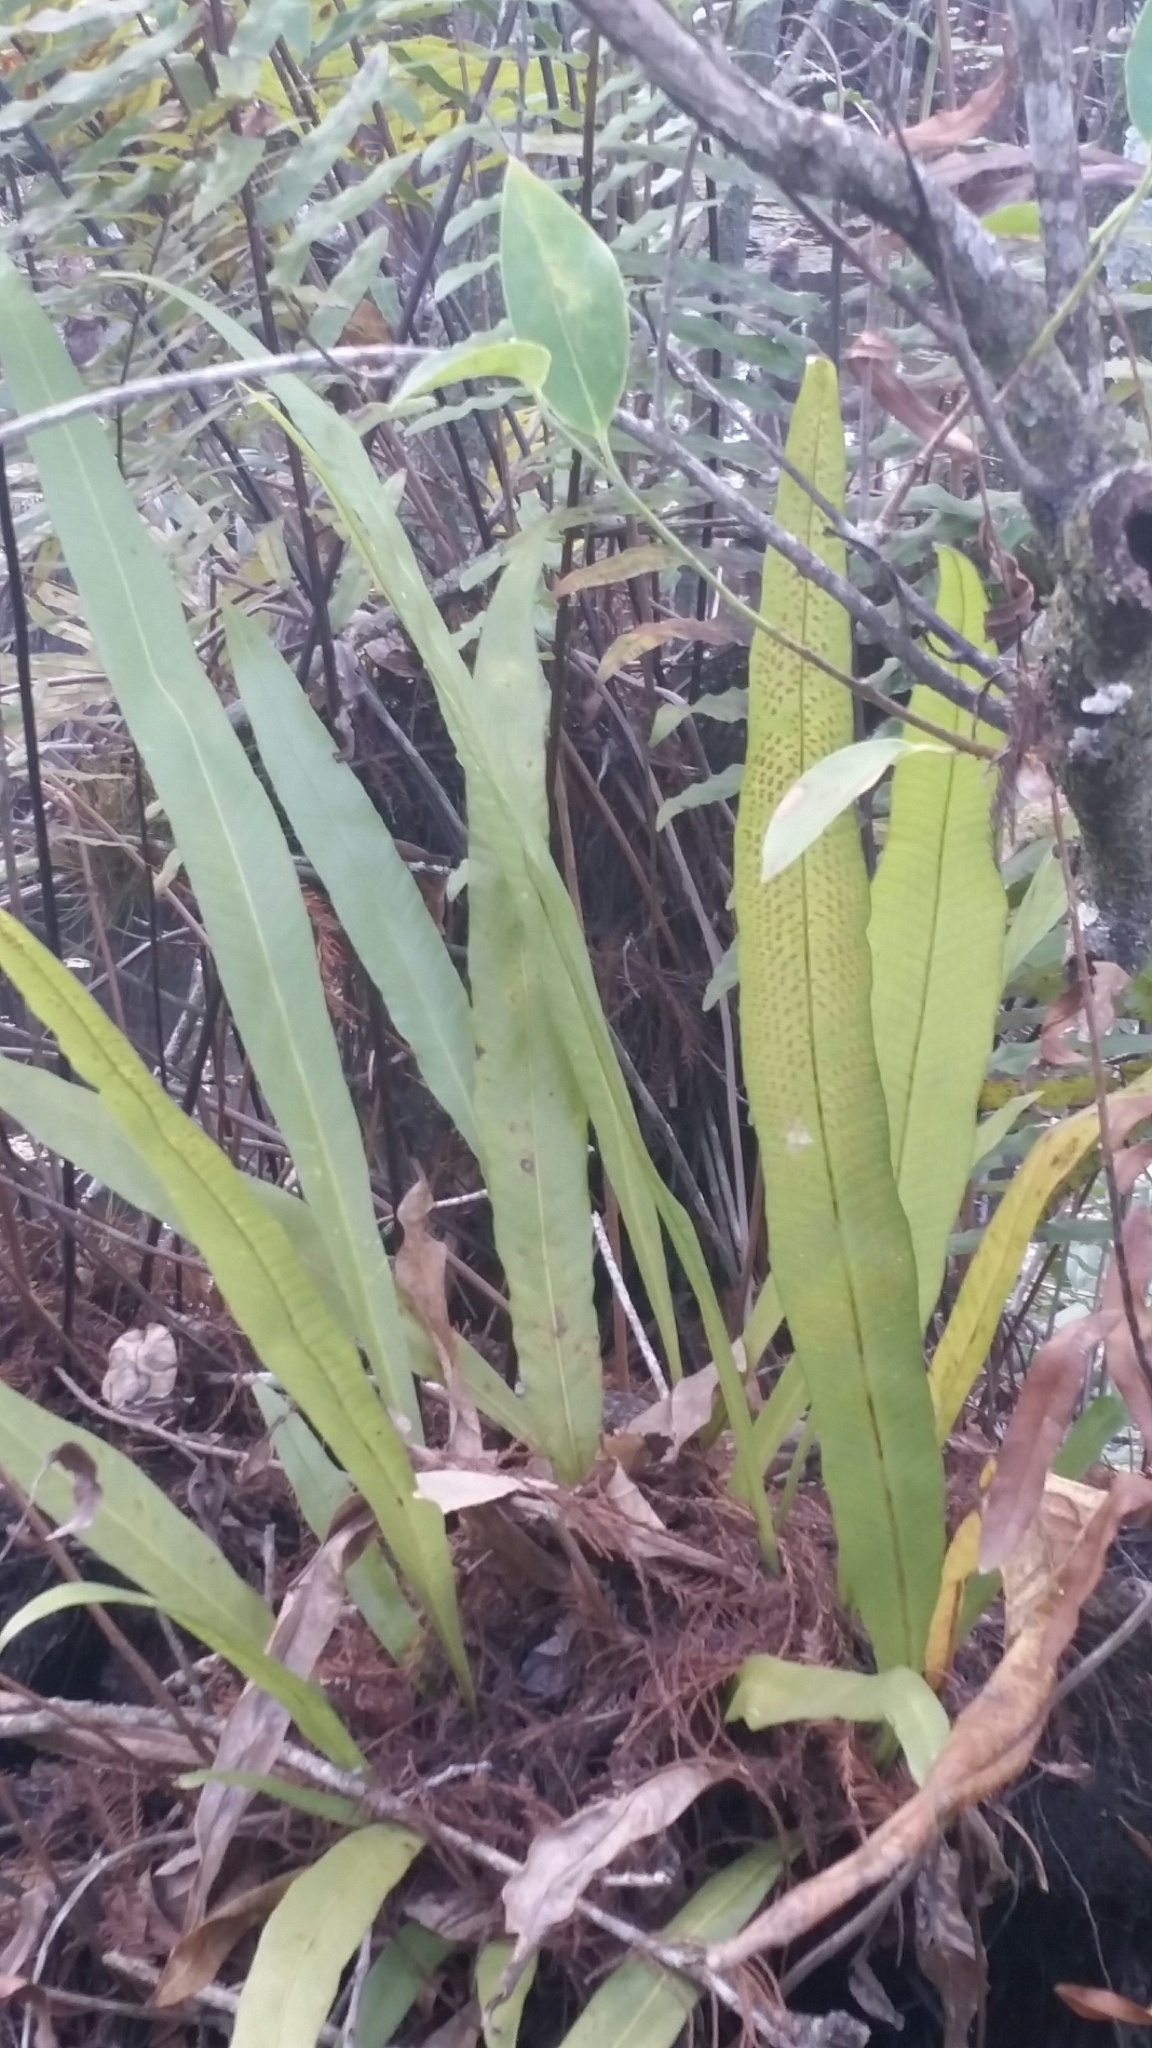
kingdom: Plantae
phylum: Tracheophyta
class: Polypodiopsida
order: Polypodiales
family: Polypodiaceae
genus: Campyloneurum
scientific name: Campyloneurum phyllitidis
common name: Cow-tongue fern
